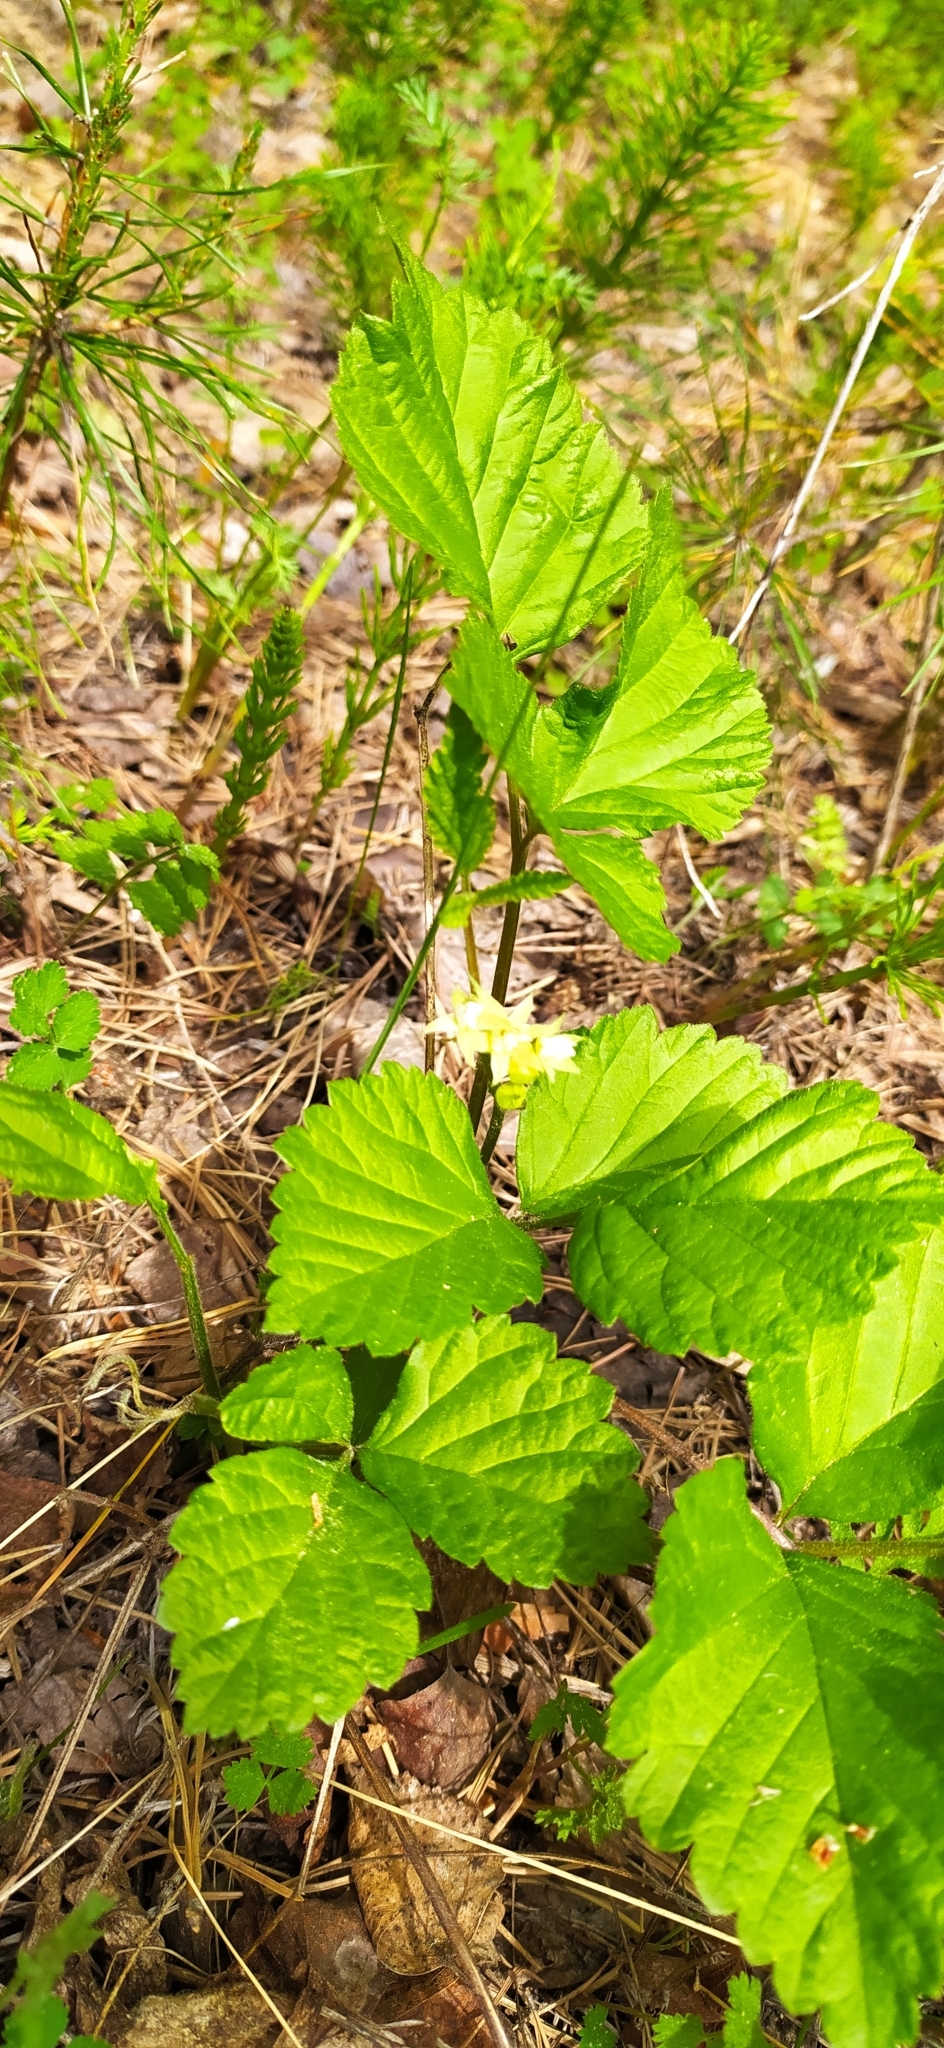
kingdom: Plantae
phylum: Tracheophyta
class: Magnoliopsida
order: Rosales
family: Rosaceae
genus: Rubus
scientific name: Rubus saxatilis
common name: Stone bramble
